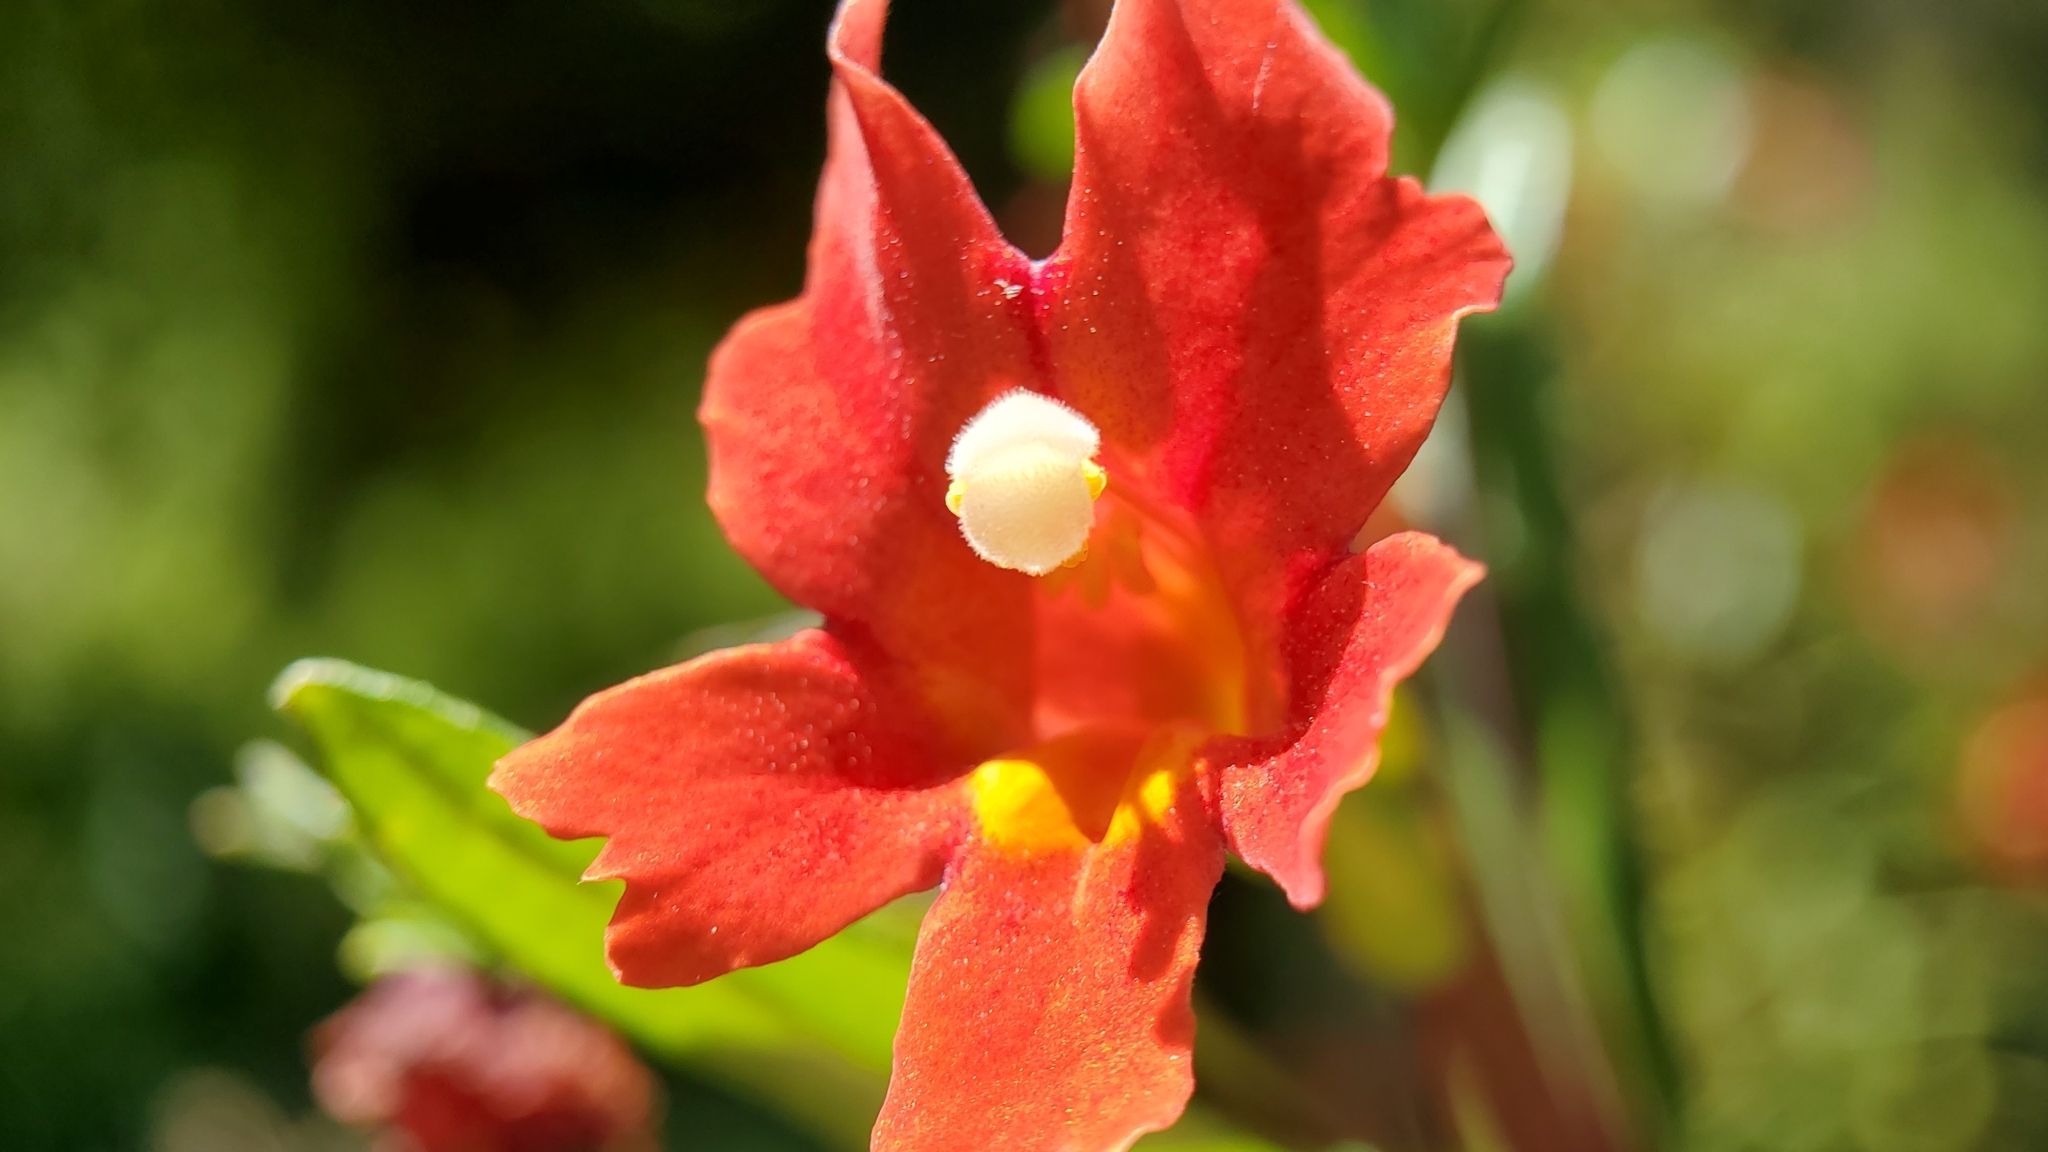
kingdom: Plantae
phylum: Tracheophyta
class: Magnoliopsida
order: Lamiales
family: Phrymaceae
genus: Diplacus
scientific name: Diplacus puniceus
